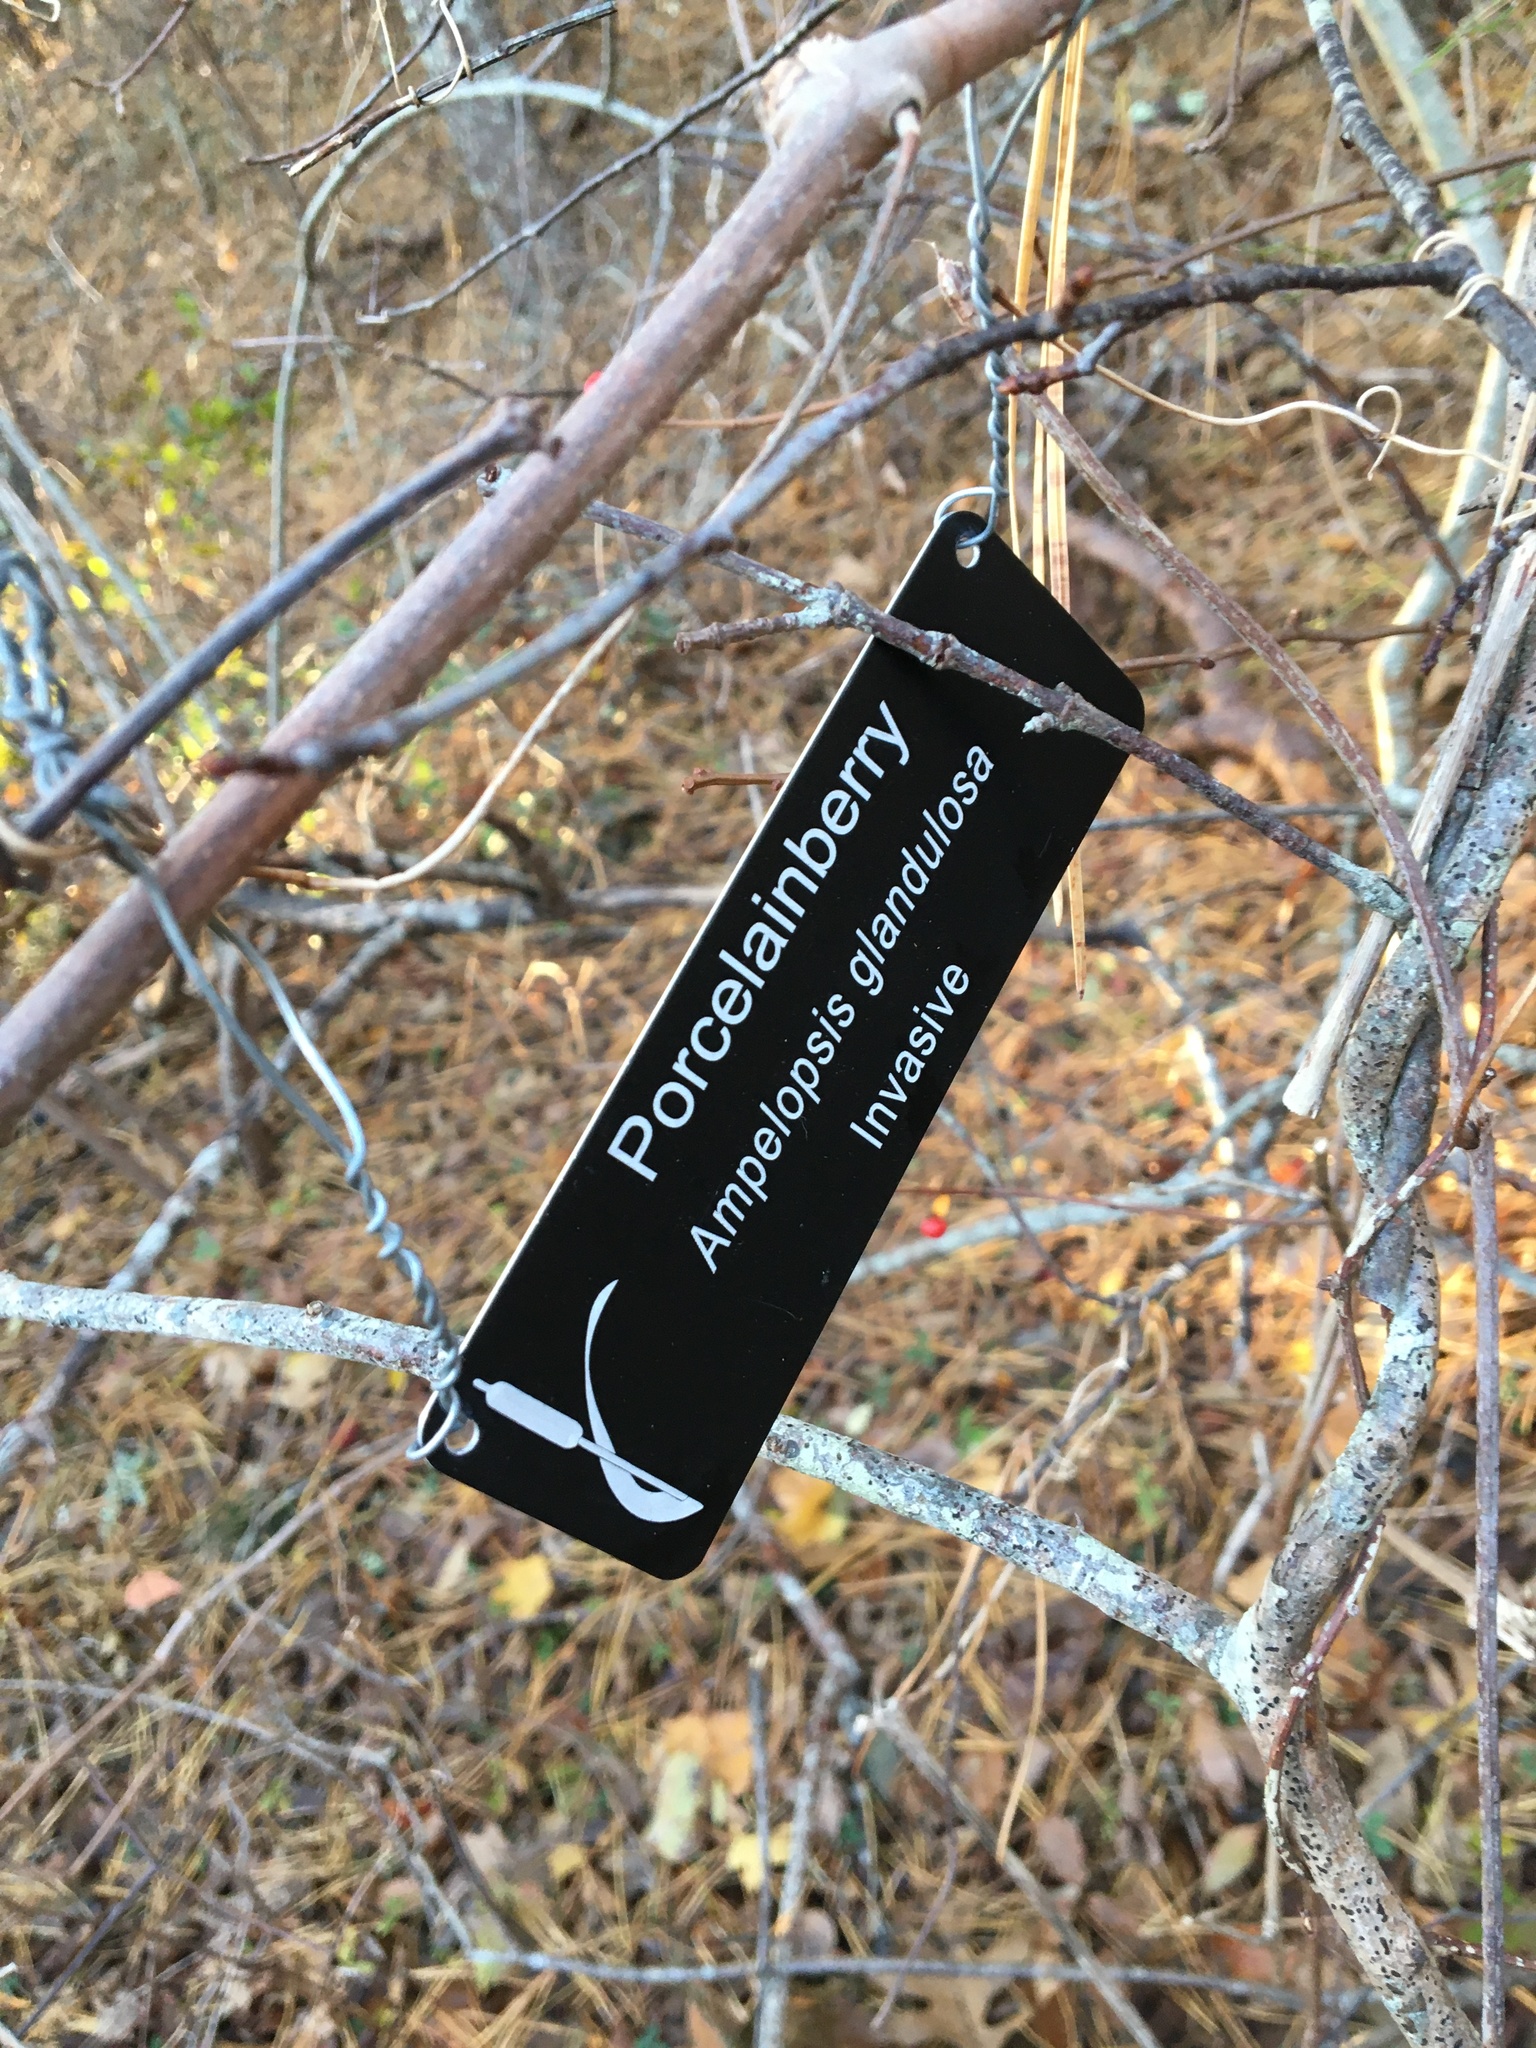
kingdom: Plantae
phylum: Tracheophyta
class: Magnoliopsida
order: Vitales
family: Vitaceae
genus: Ampelopsis
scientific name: Ampelopsis glandulosa
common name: Amur peppervine
